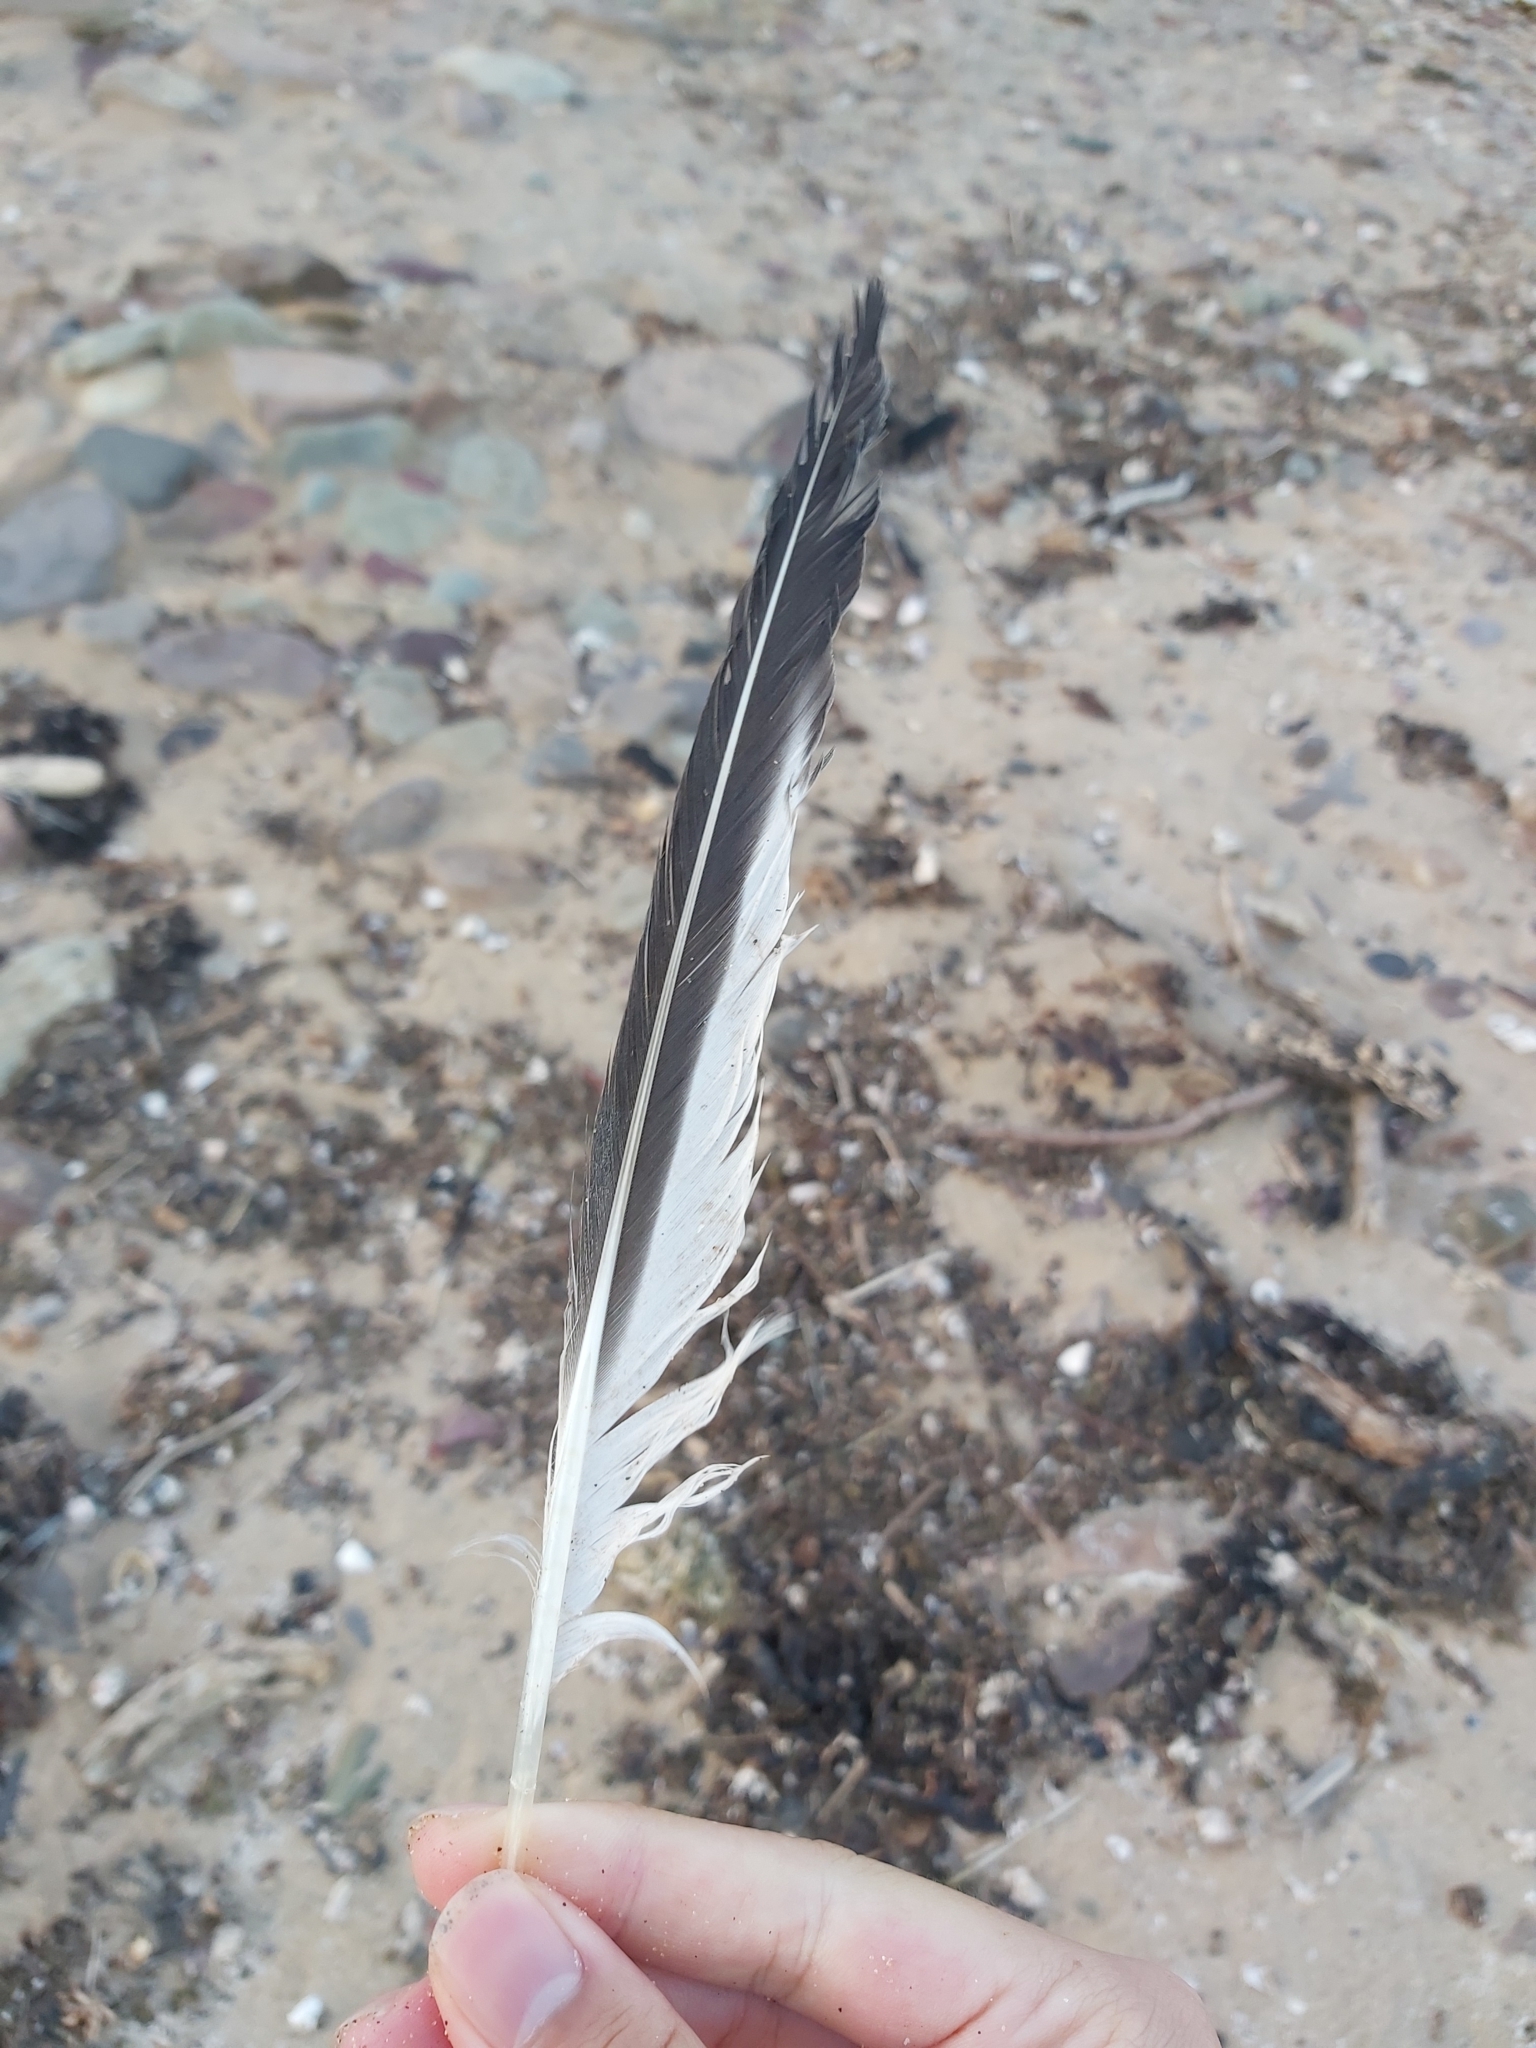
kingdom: Animalia
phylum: Chordata
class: Aves
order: Charadriiformes
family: Laridae
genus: Thalasseus
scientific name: Thalasseus bergii
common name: Greater crested tern
